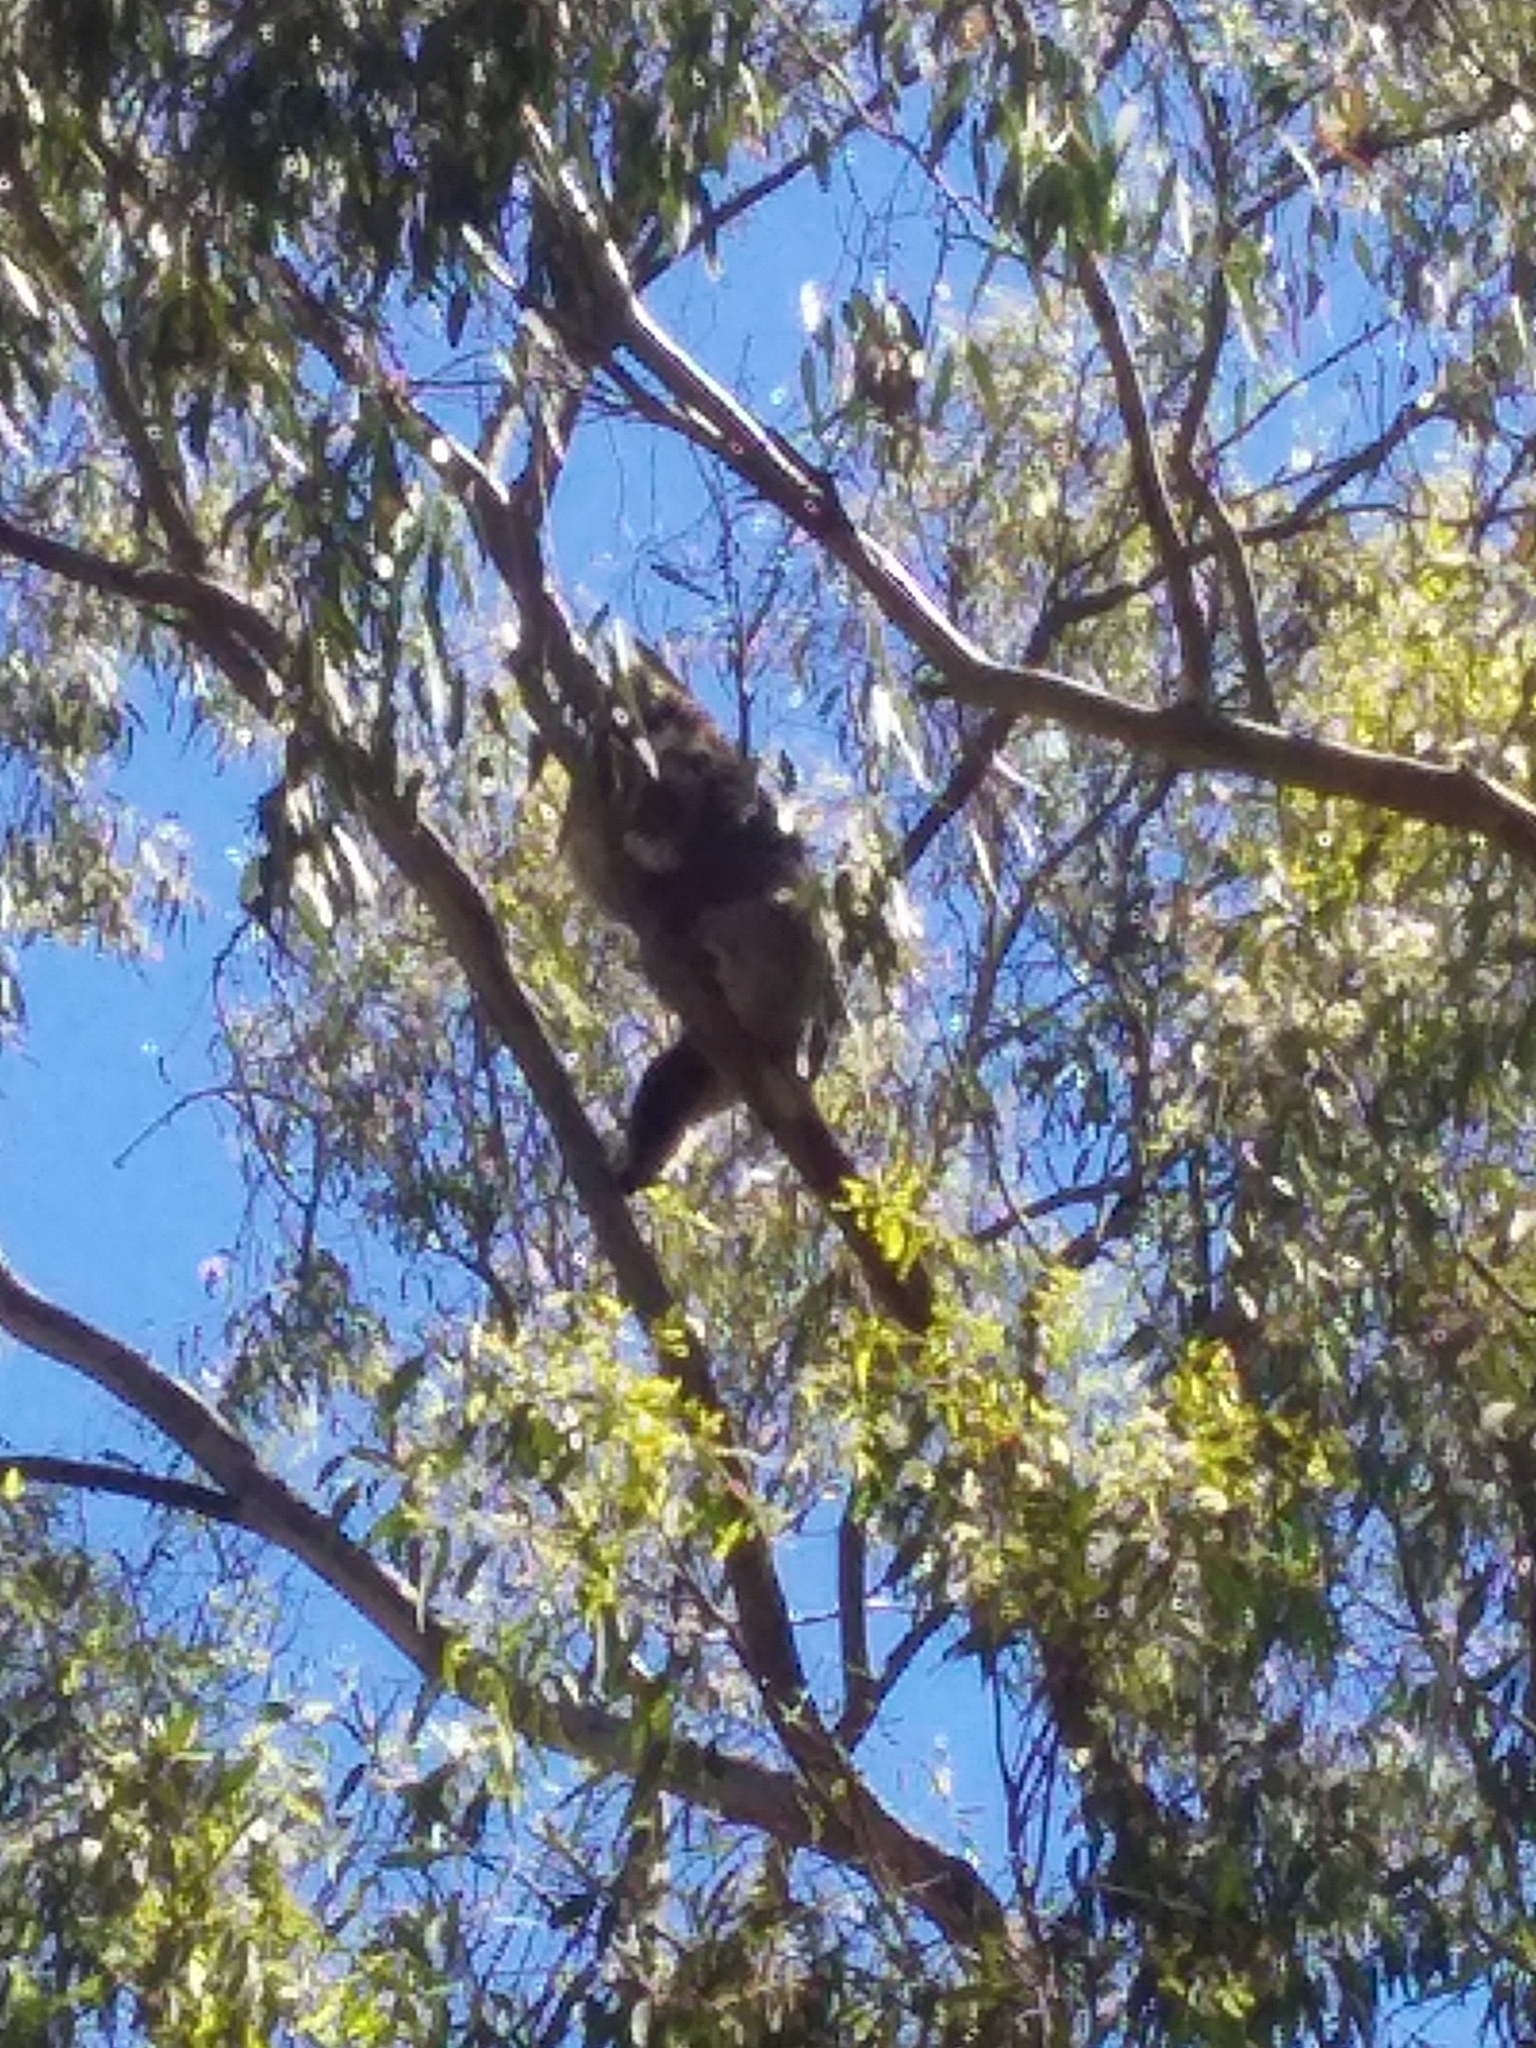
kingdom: Animalia
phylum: Chordata
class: Mammalia
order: Diprotodontia
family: Phascolarctidae
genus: Phascolarctos
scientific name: Phascolarctos cinereus
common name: Koala
